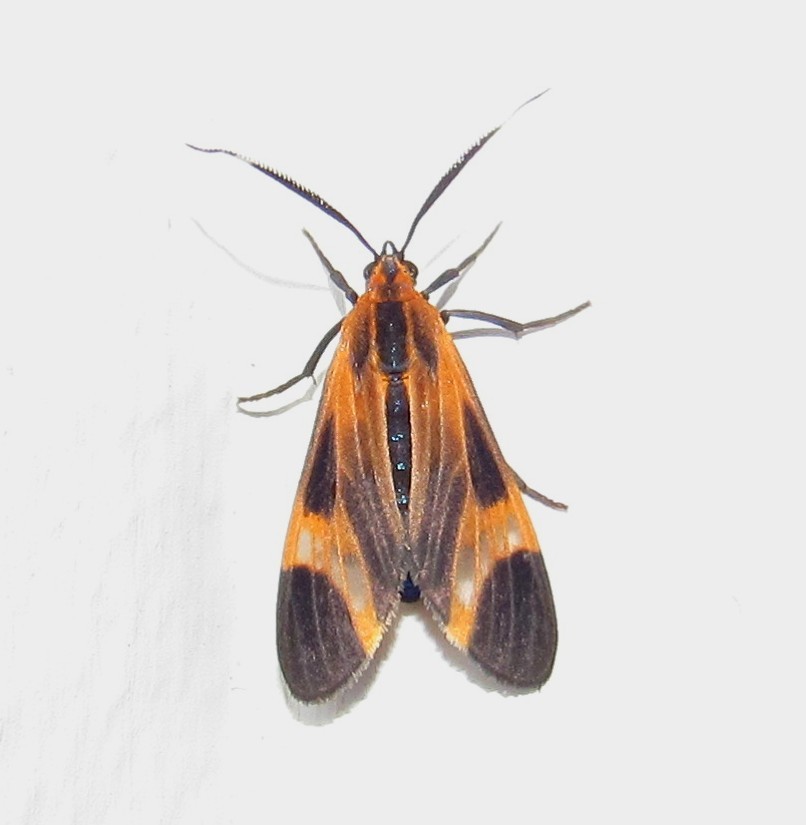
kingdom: Animalia
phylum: Arthropoda
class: Insecta
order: Lepidoptera
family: Erebidae
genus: Dycladia
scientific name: Dycladia lucetius
